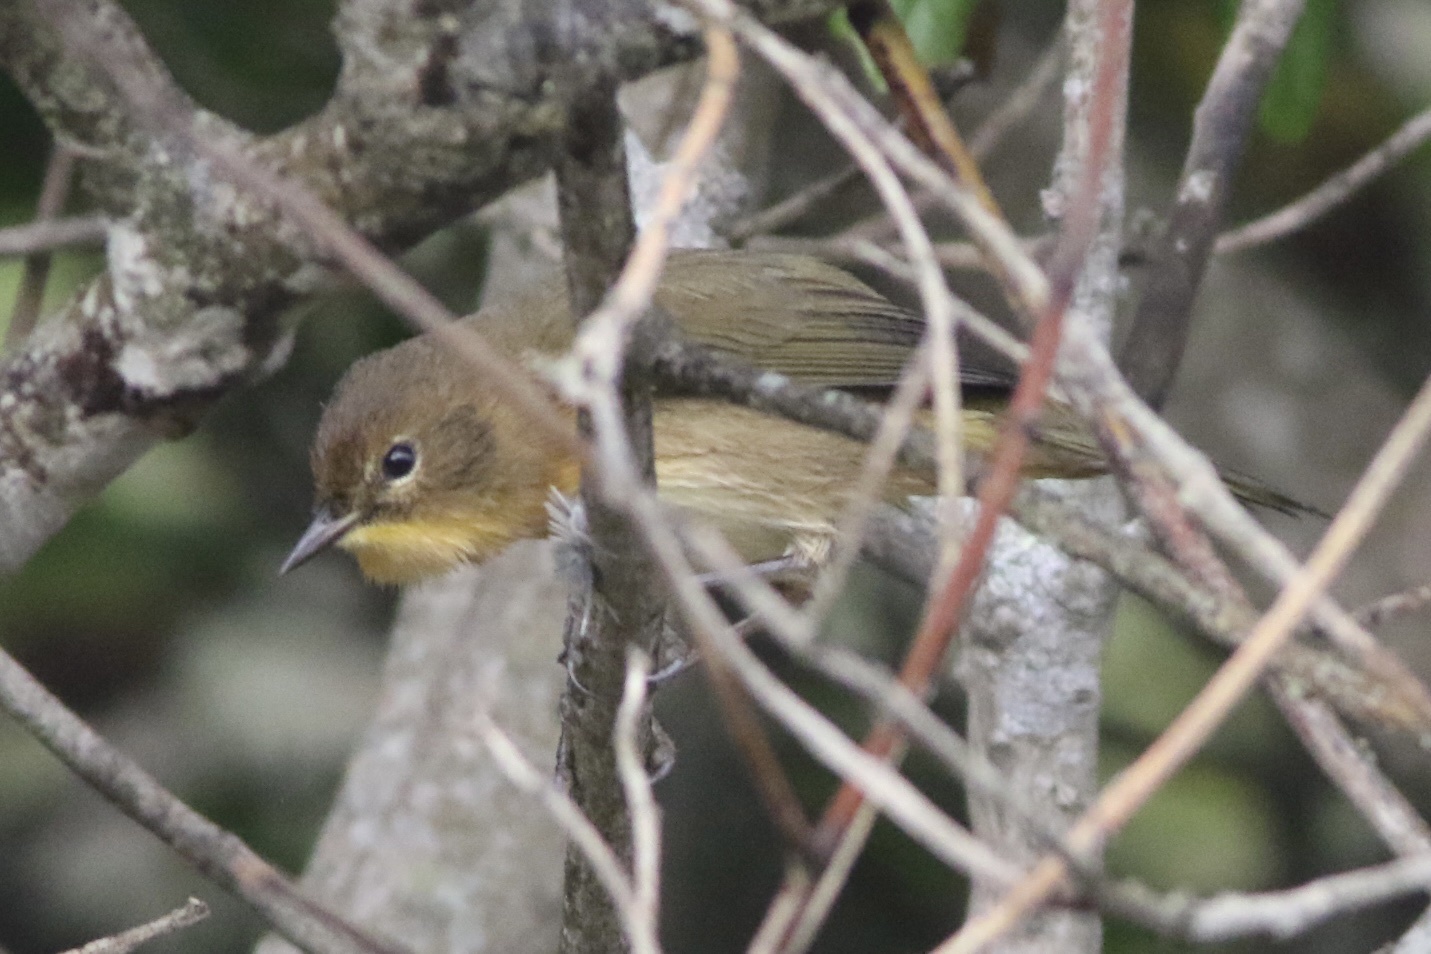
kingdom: Animalia
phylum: Chordata
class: Aves
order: Passeriformes
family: Parulidae
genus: Geothlypis
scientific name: Geothlypis trichas
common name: Common yellowthroat
